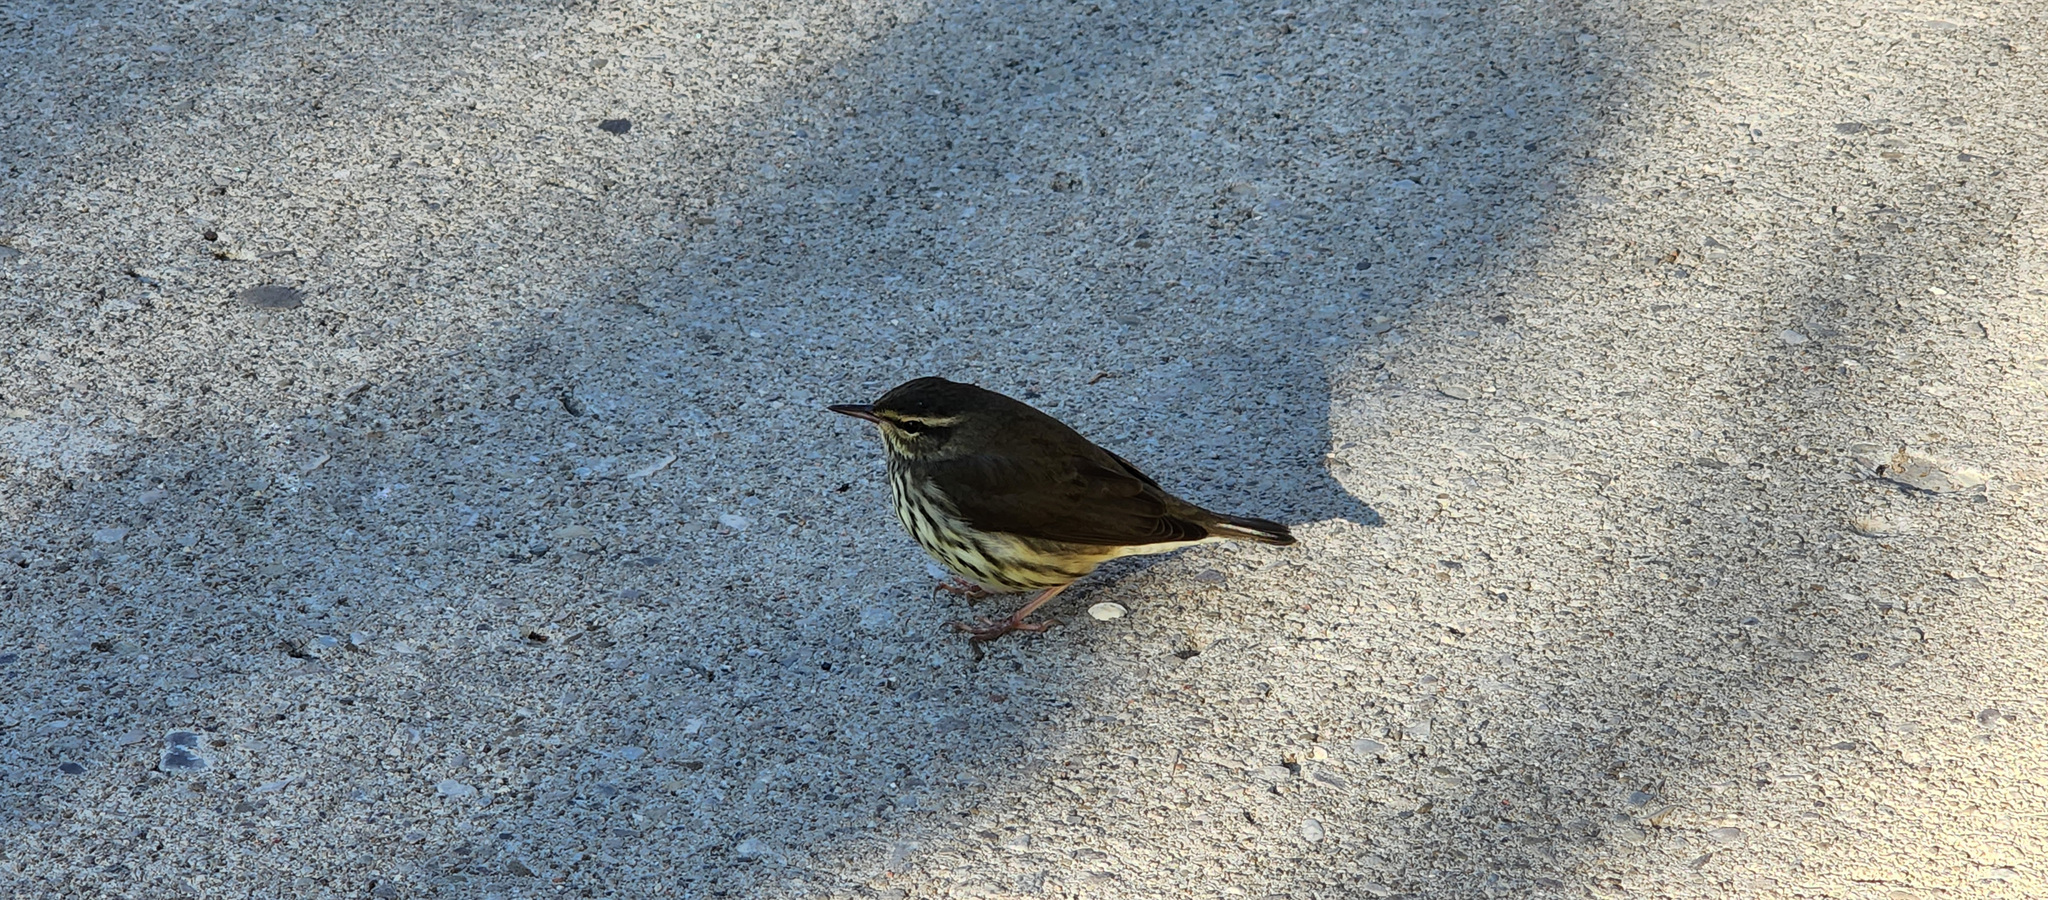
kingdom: Animalia
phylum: Chordata
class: Aves
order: Passeriformes
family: Parulidae
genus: Parkesia
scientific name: Parkesia noveboracensis
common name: Northern waterthrush
